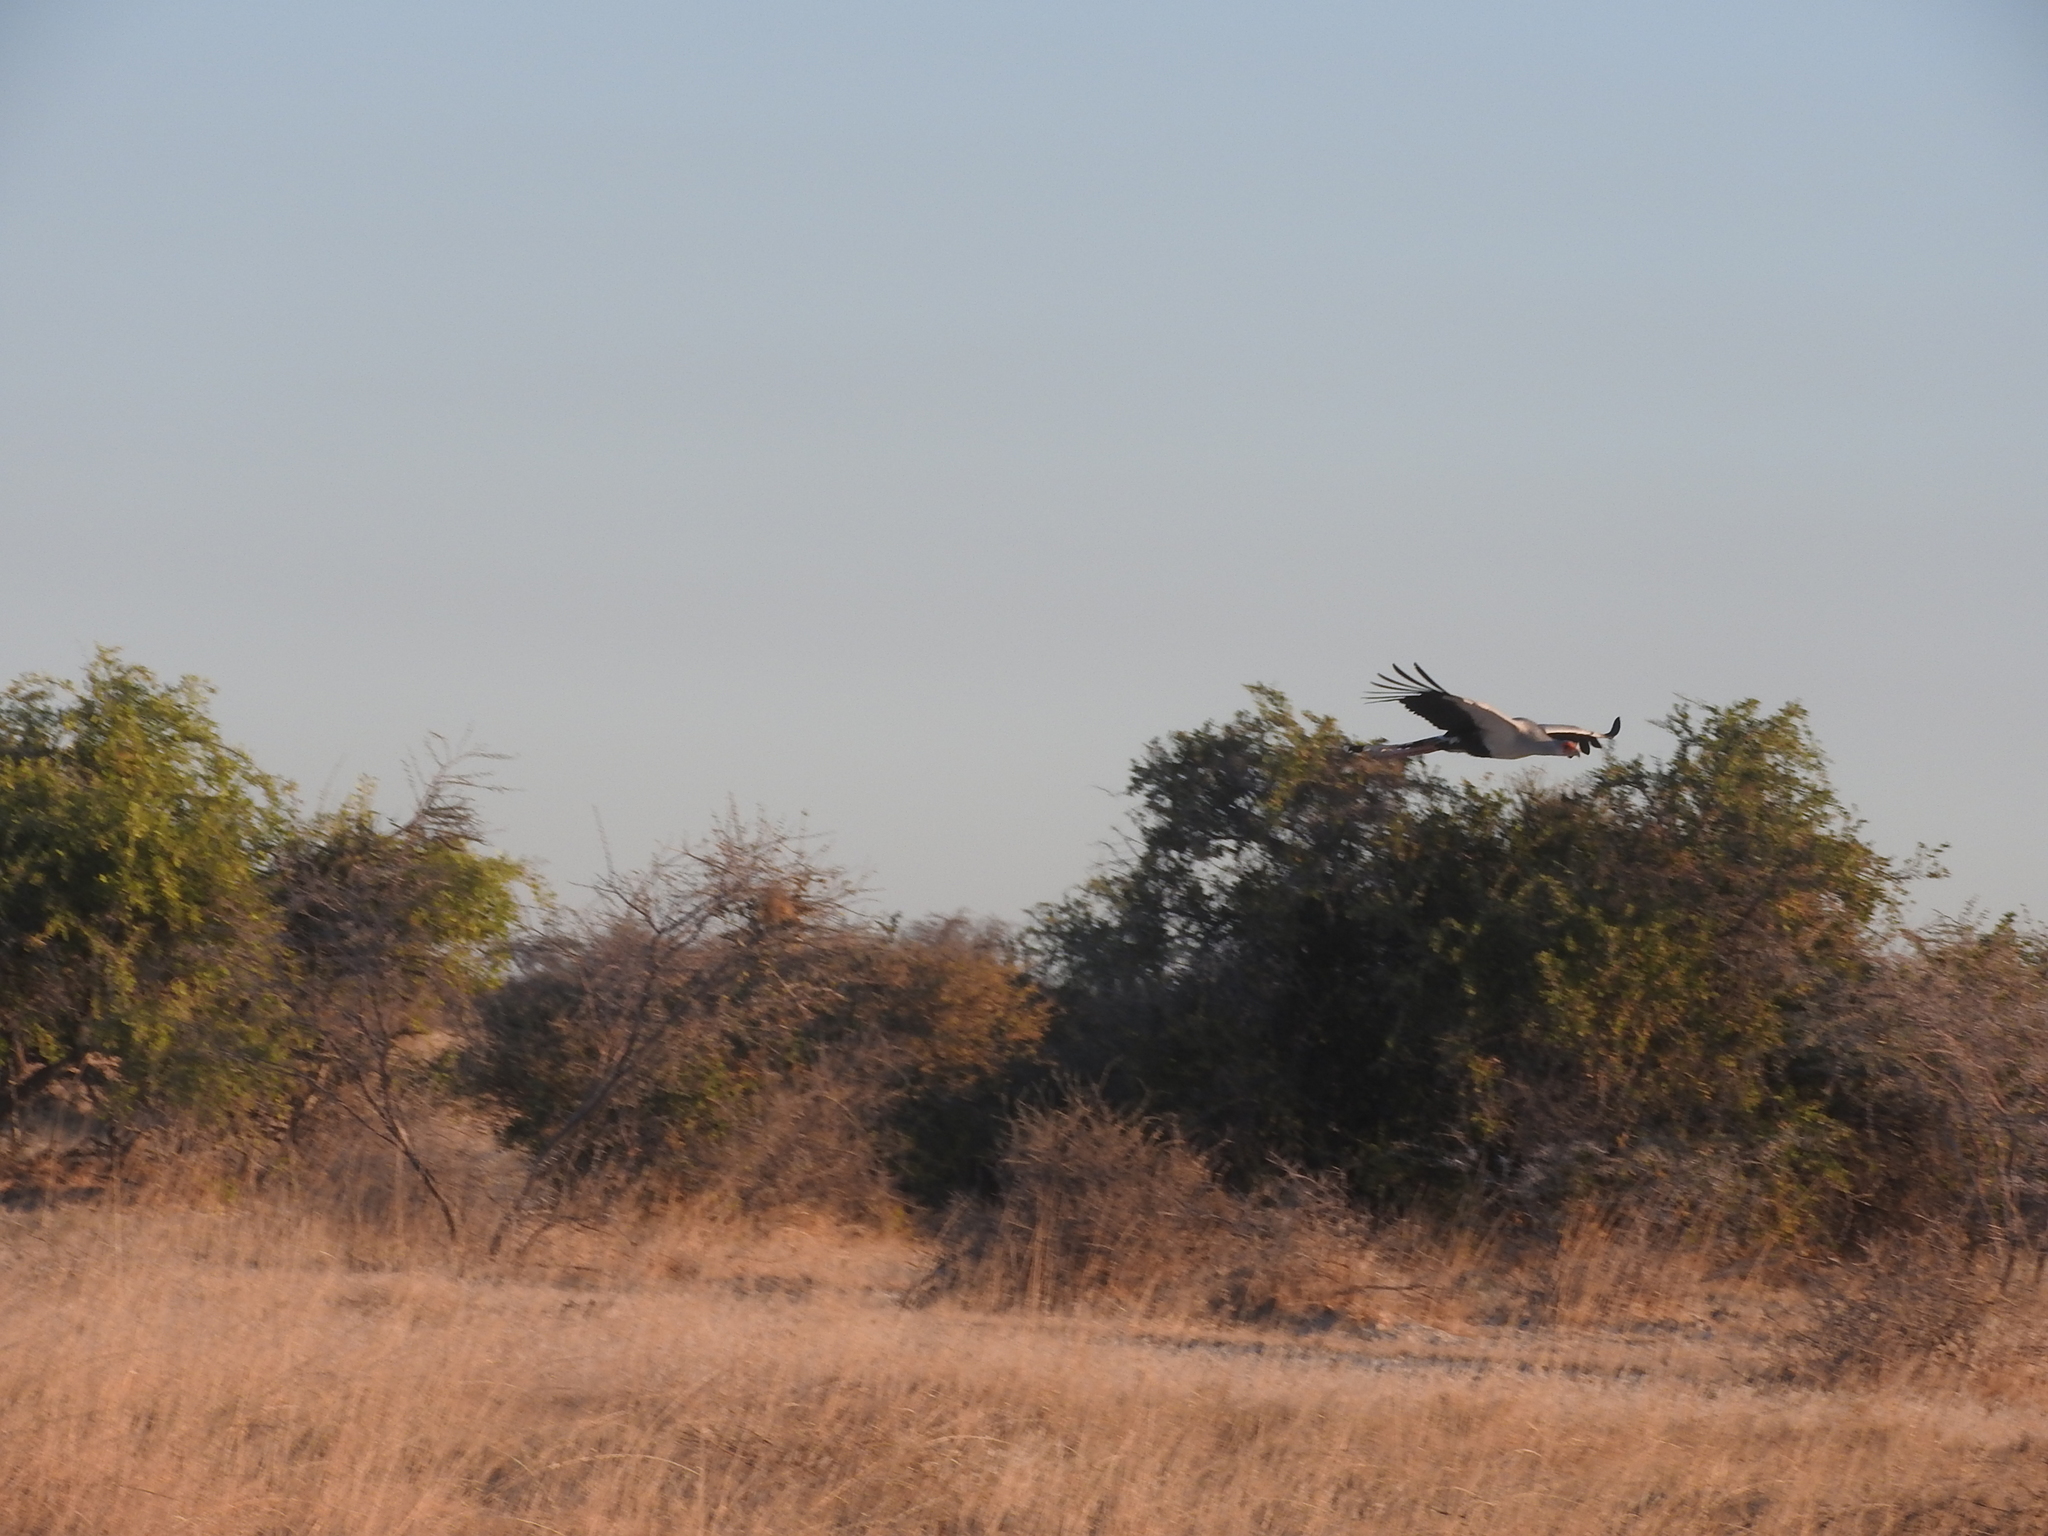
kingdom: Animalia
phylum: Chordata
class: Aves
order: Accipitriformes
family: Sagittariidae
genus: Sagittarius
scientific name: Sagittarius serpentarius
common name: Secretarybird
